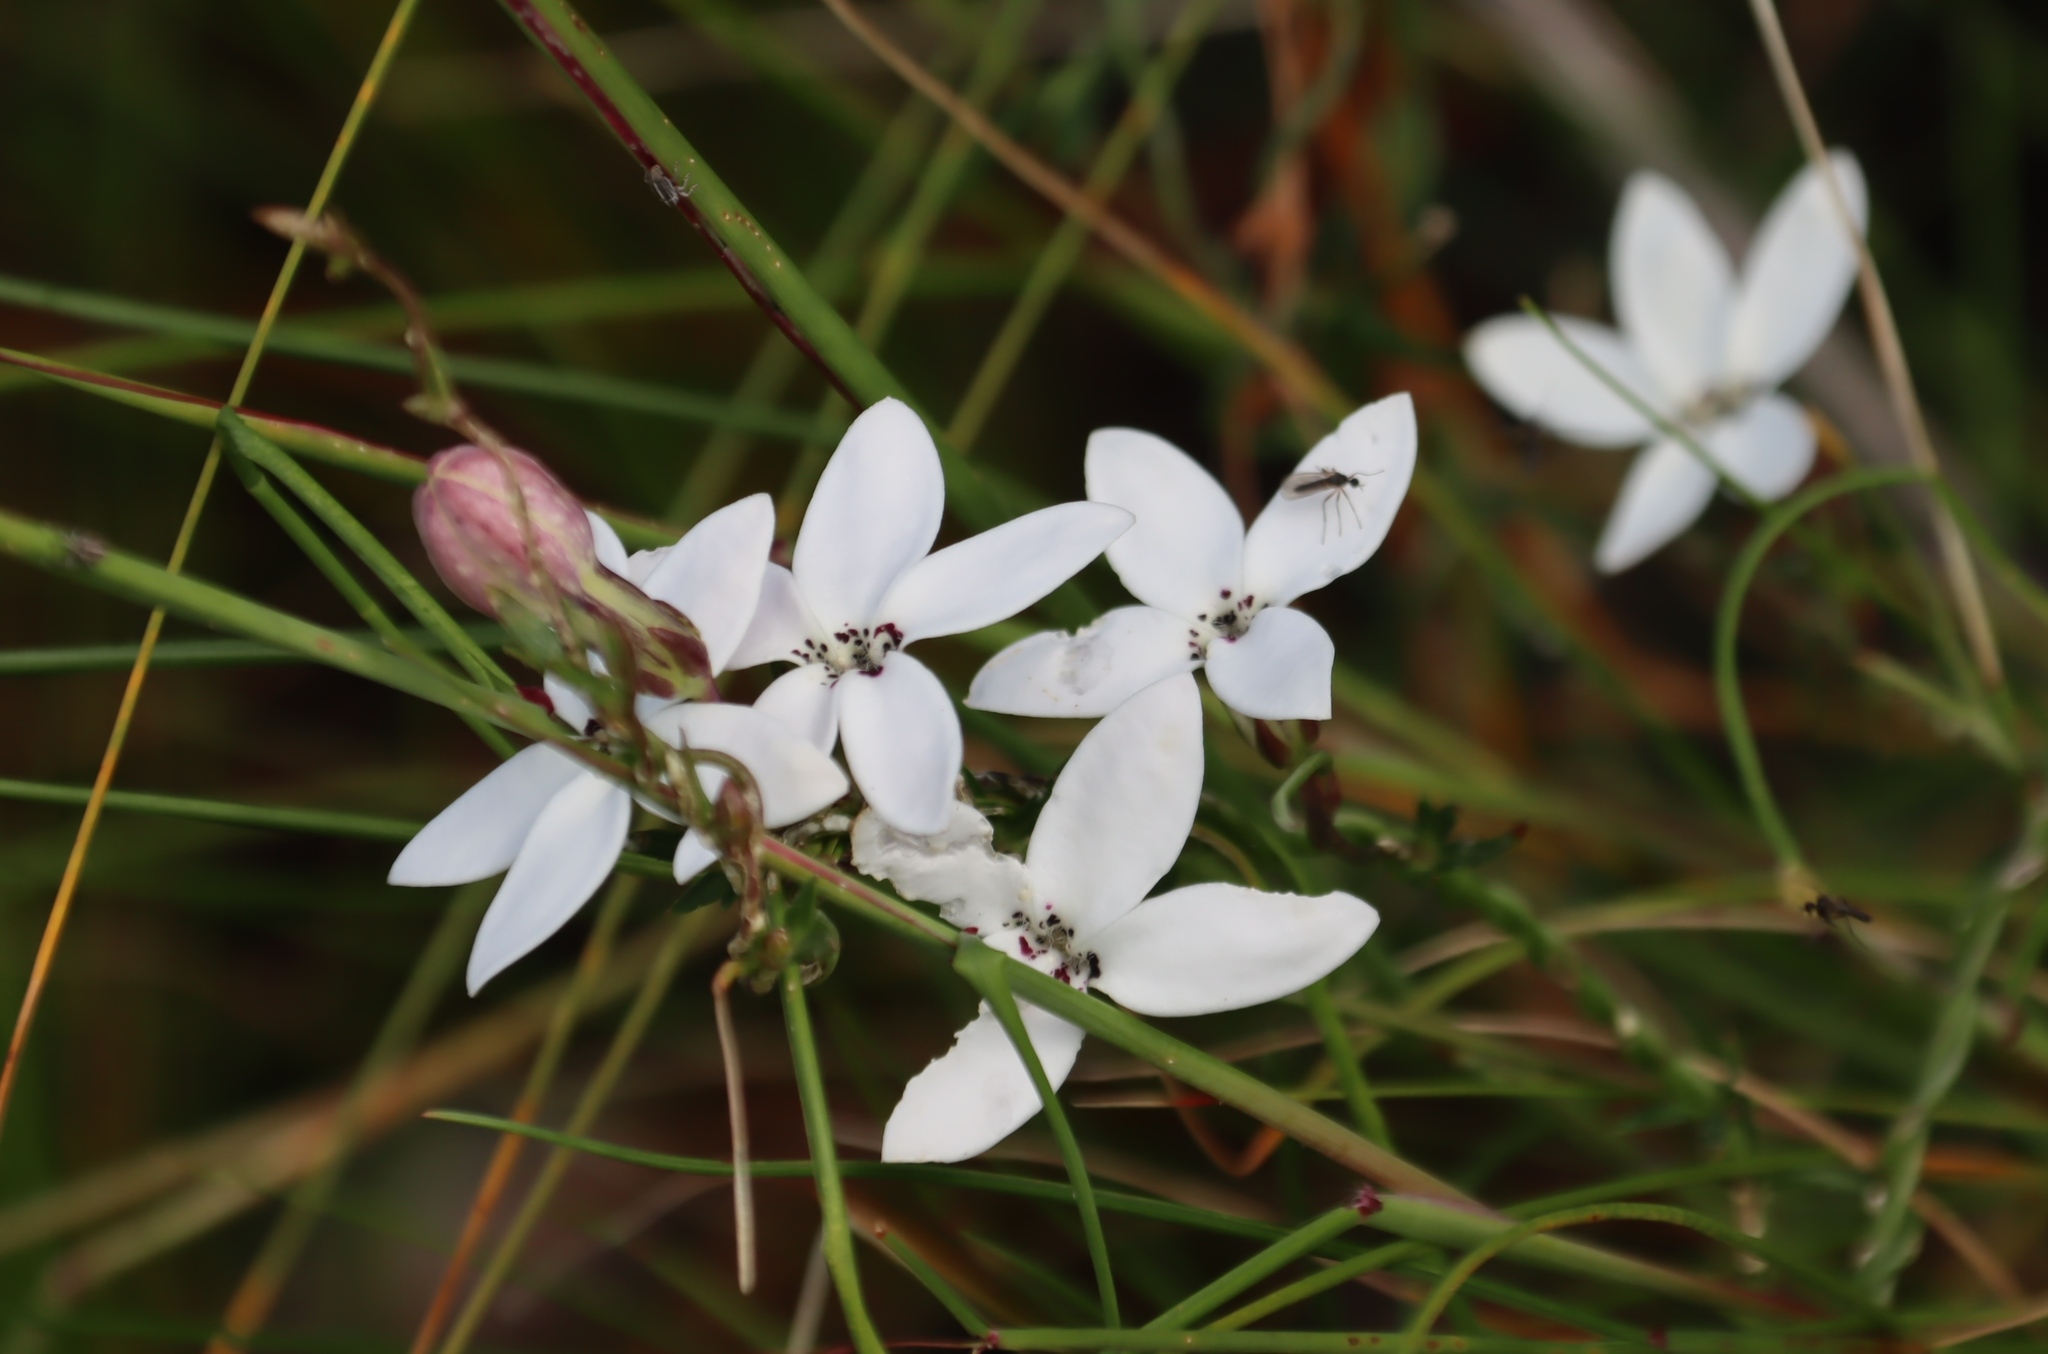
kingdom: Plantae
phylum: Tracheophyta
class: Magnoliopsida
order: Asterales
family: Campanulaceae
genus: Cyphia
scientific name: Cyphia volubilis
